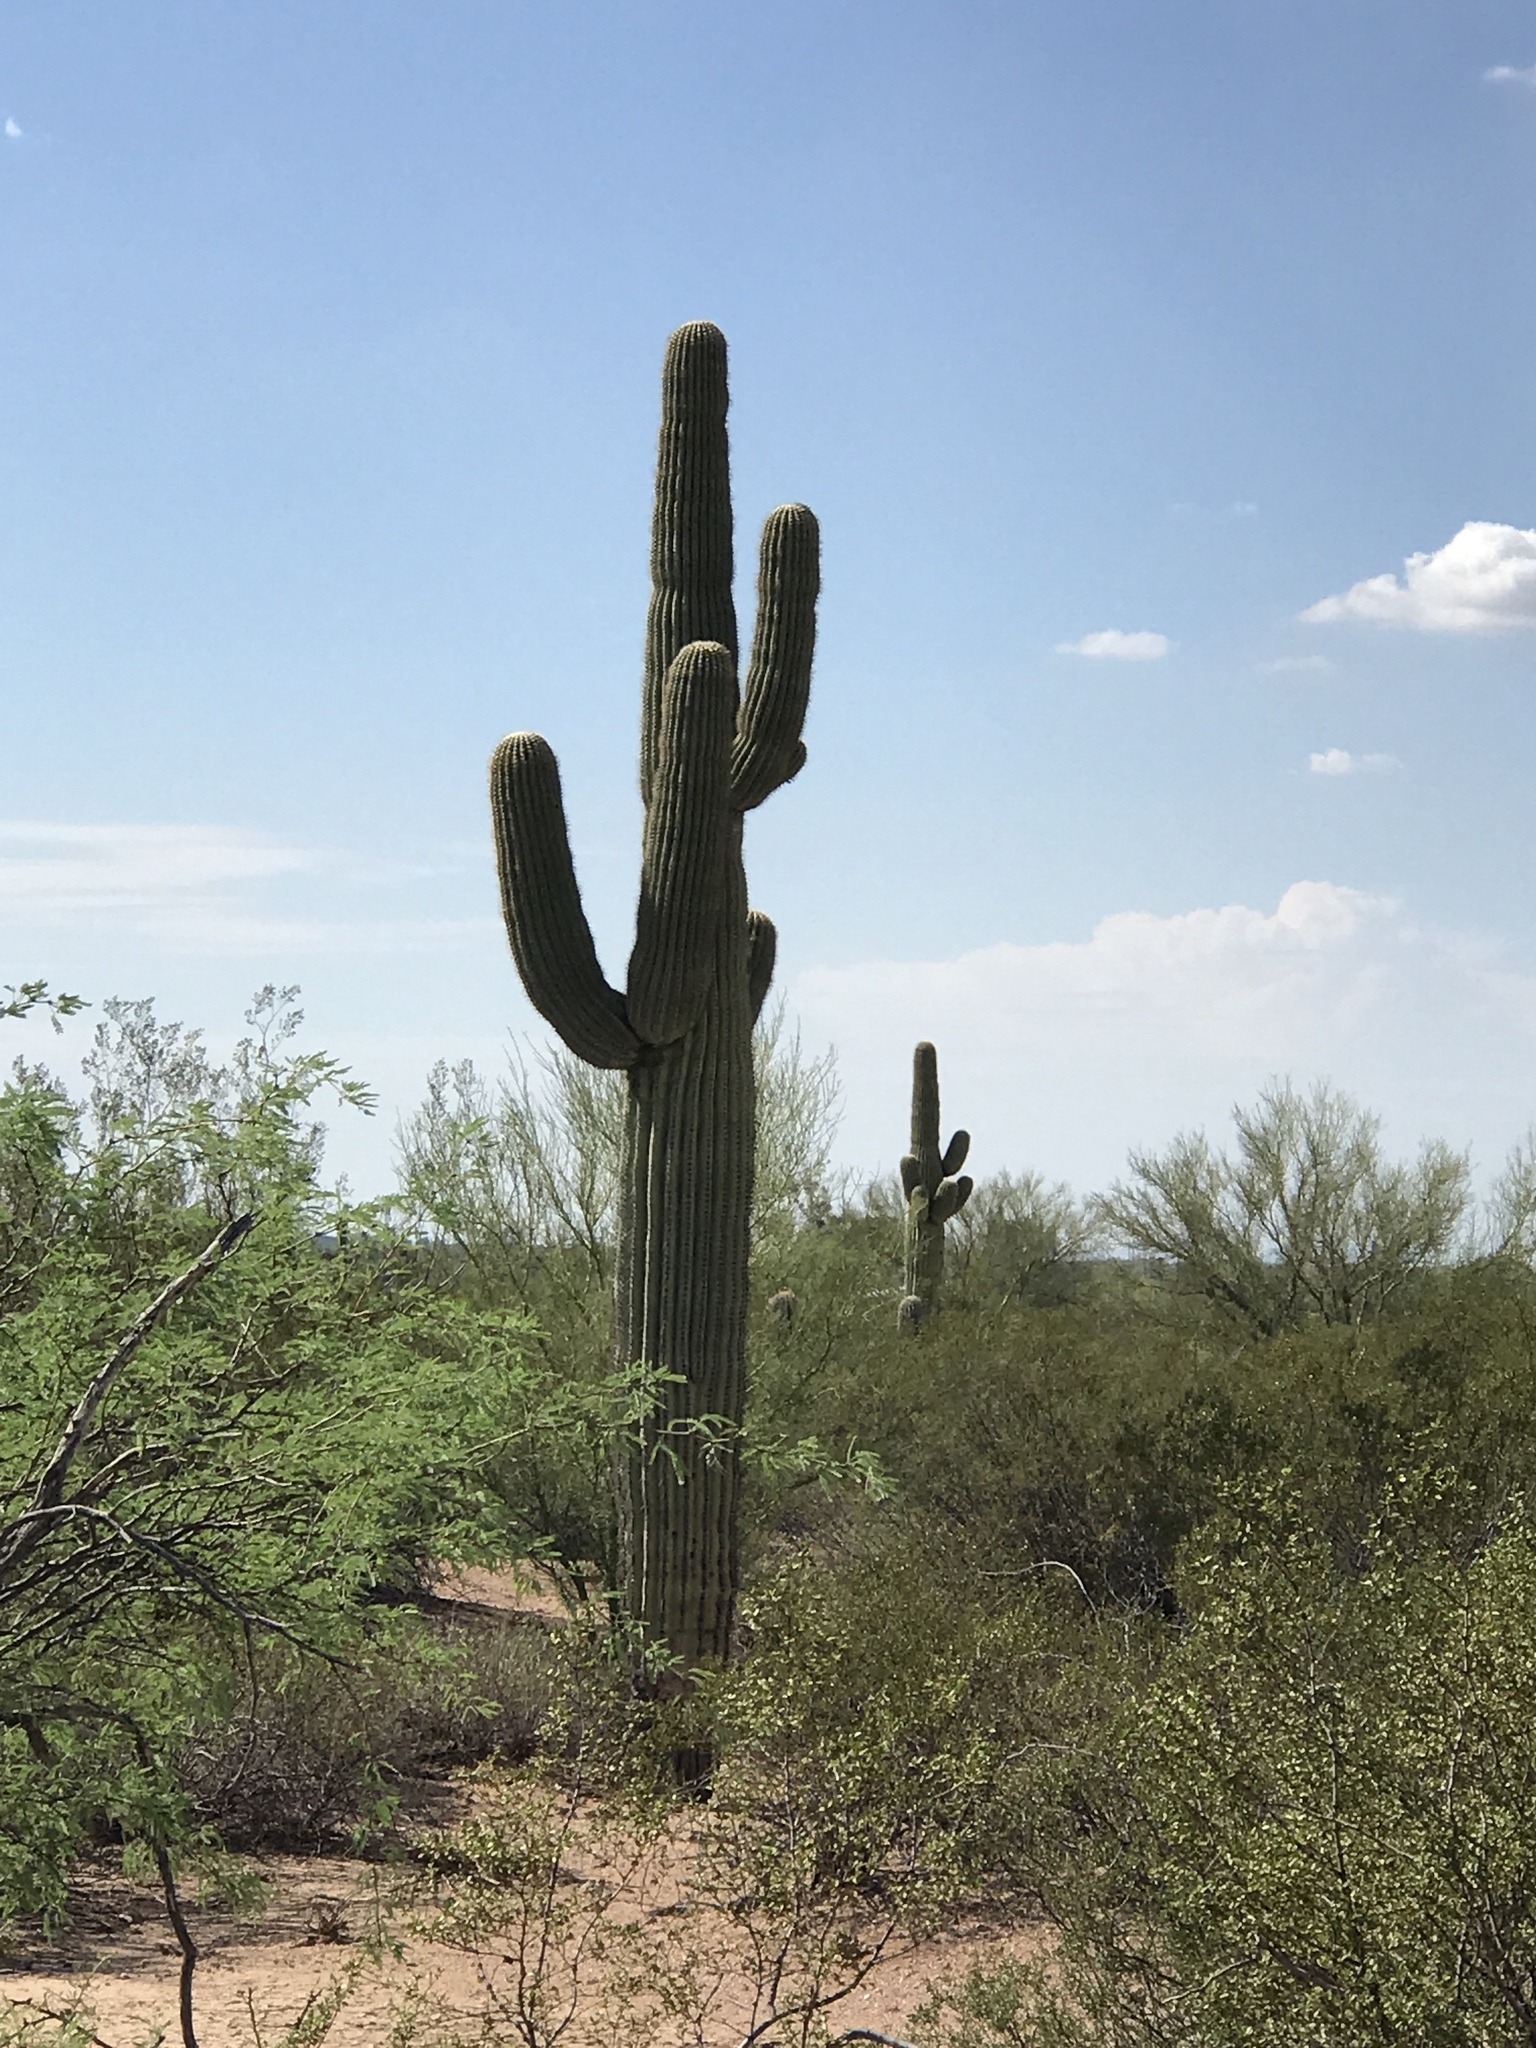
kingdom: Plantae
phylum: Tracheophyta
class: Magnoliopsida
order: Caryophyllales
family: Cactaceae
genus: Carnegiea
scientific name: Carnegiea gigantea
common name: Saguaro
